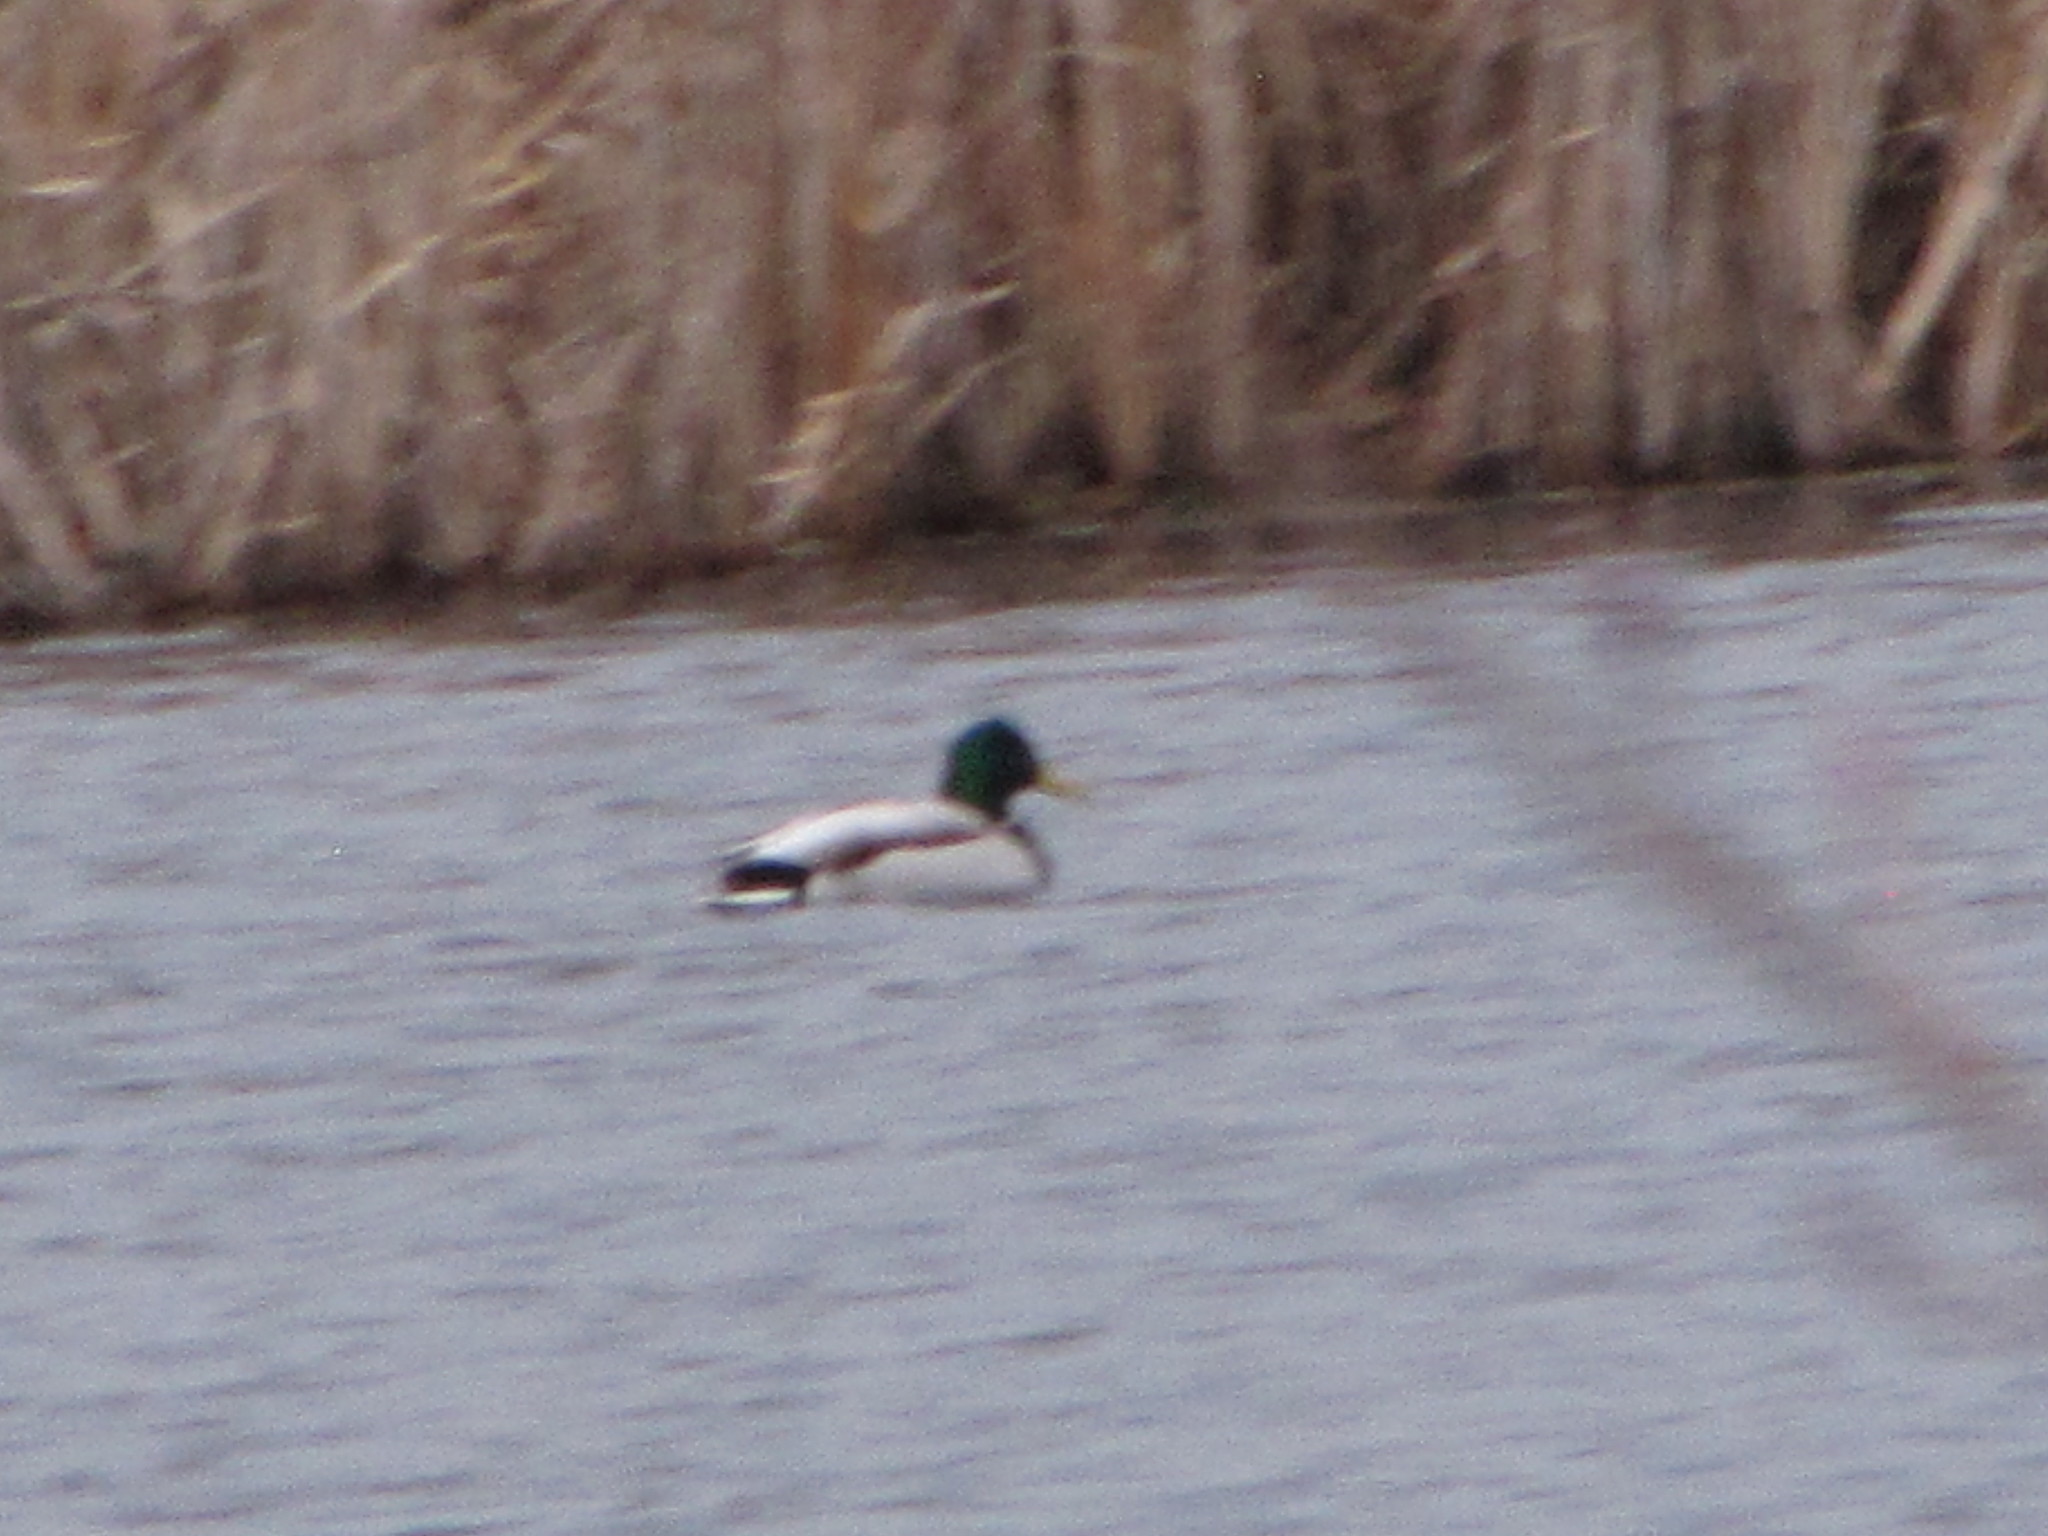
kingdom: Animalia
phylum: Chordata
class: Aves
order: Anseriformes
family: Anatidae
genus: Anas
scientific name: Anas platyrhynchos
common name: Mallard
